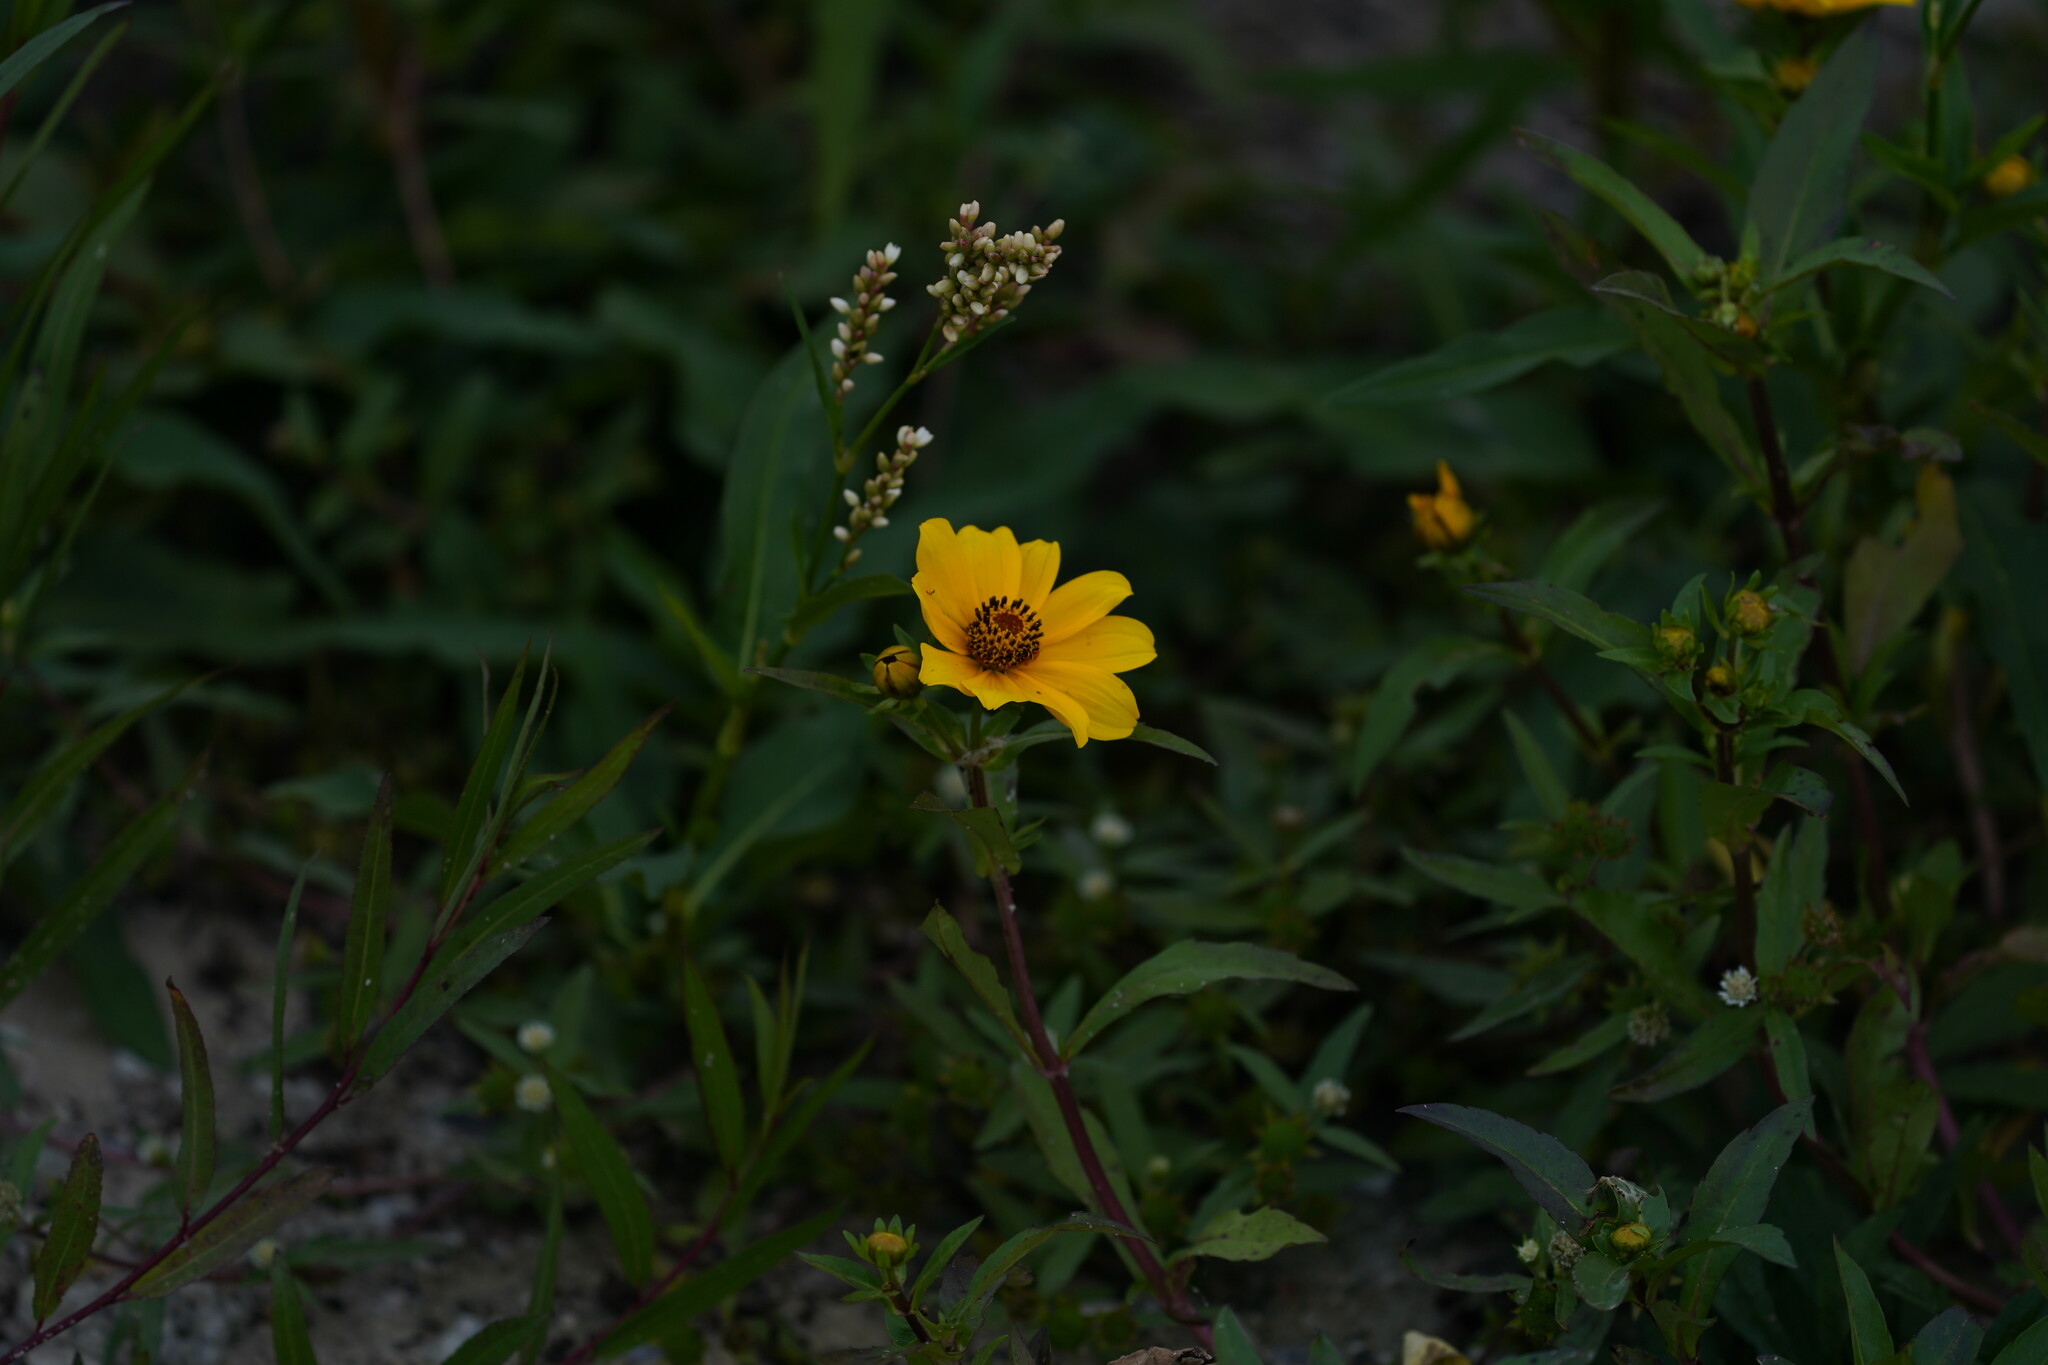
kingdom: Plantae
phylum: Tracheophyta
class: Magnoliopsida
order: Asterales
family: Asteraceae
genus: Bidens
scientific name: Bidens laevis
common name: Larger bur-marigold
